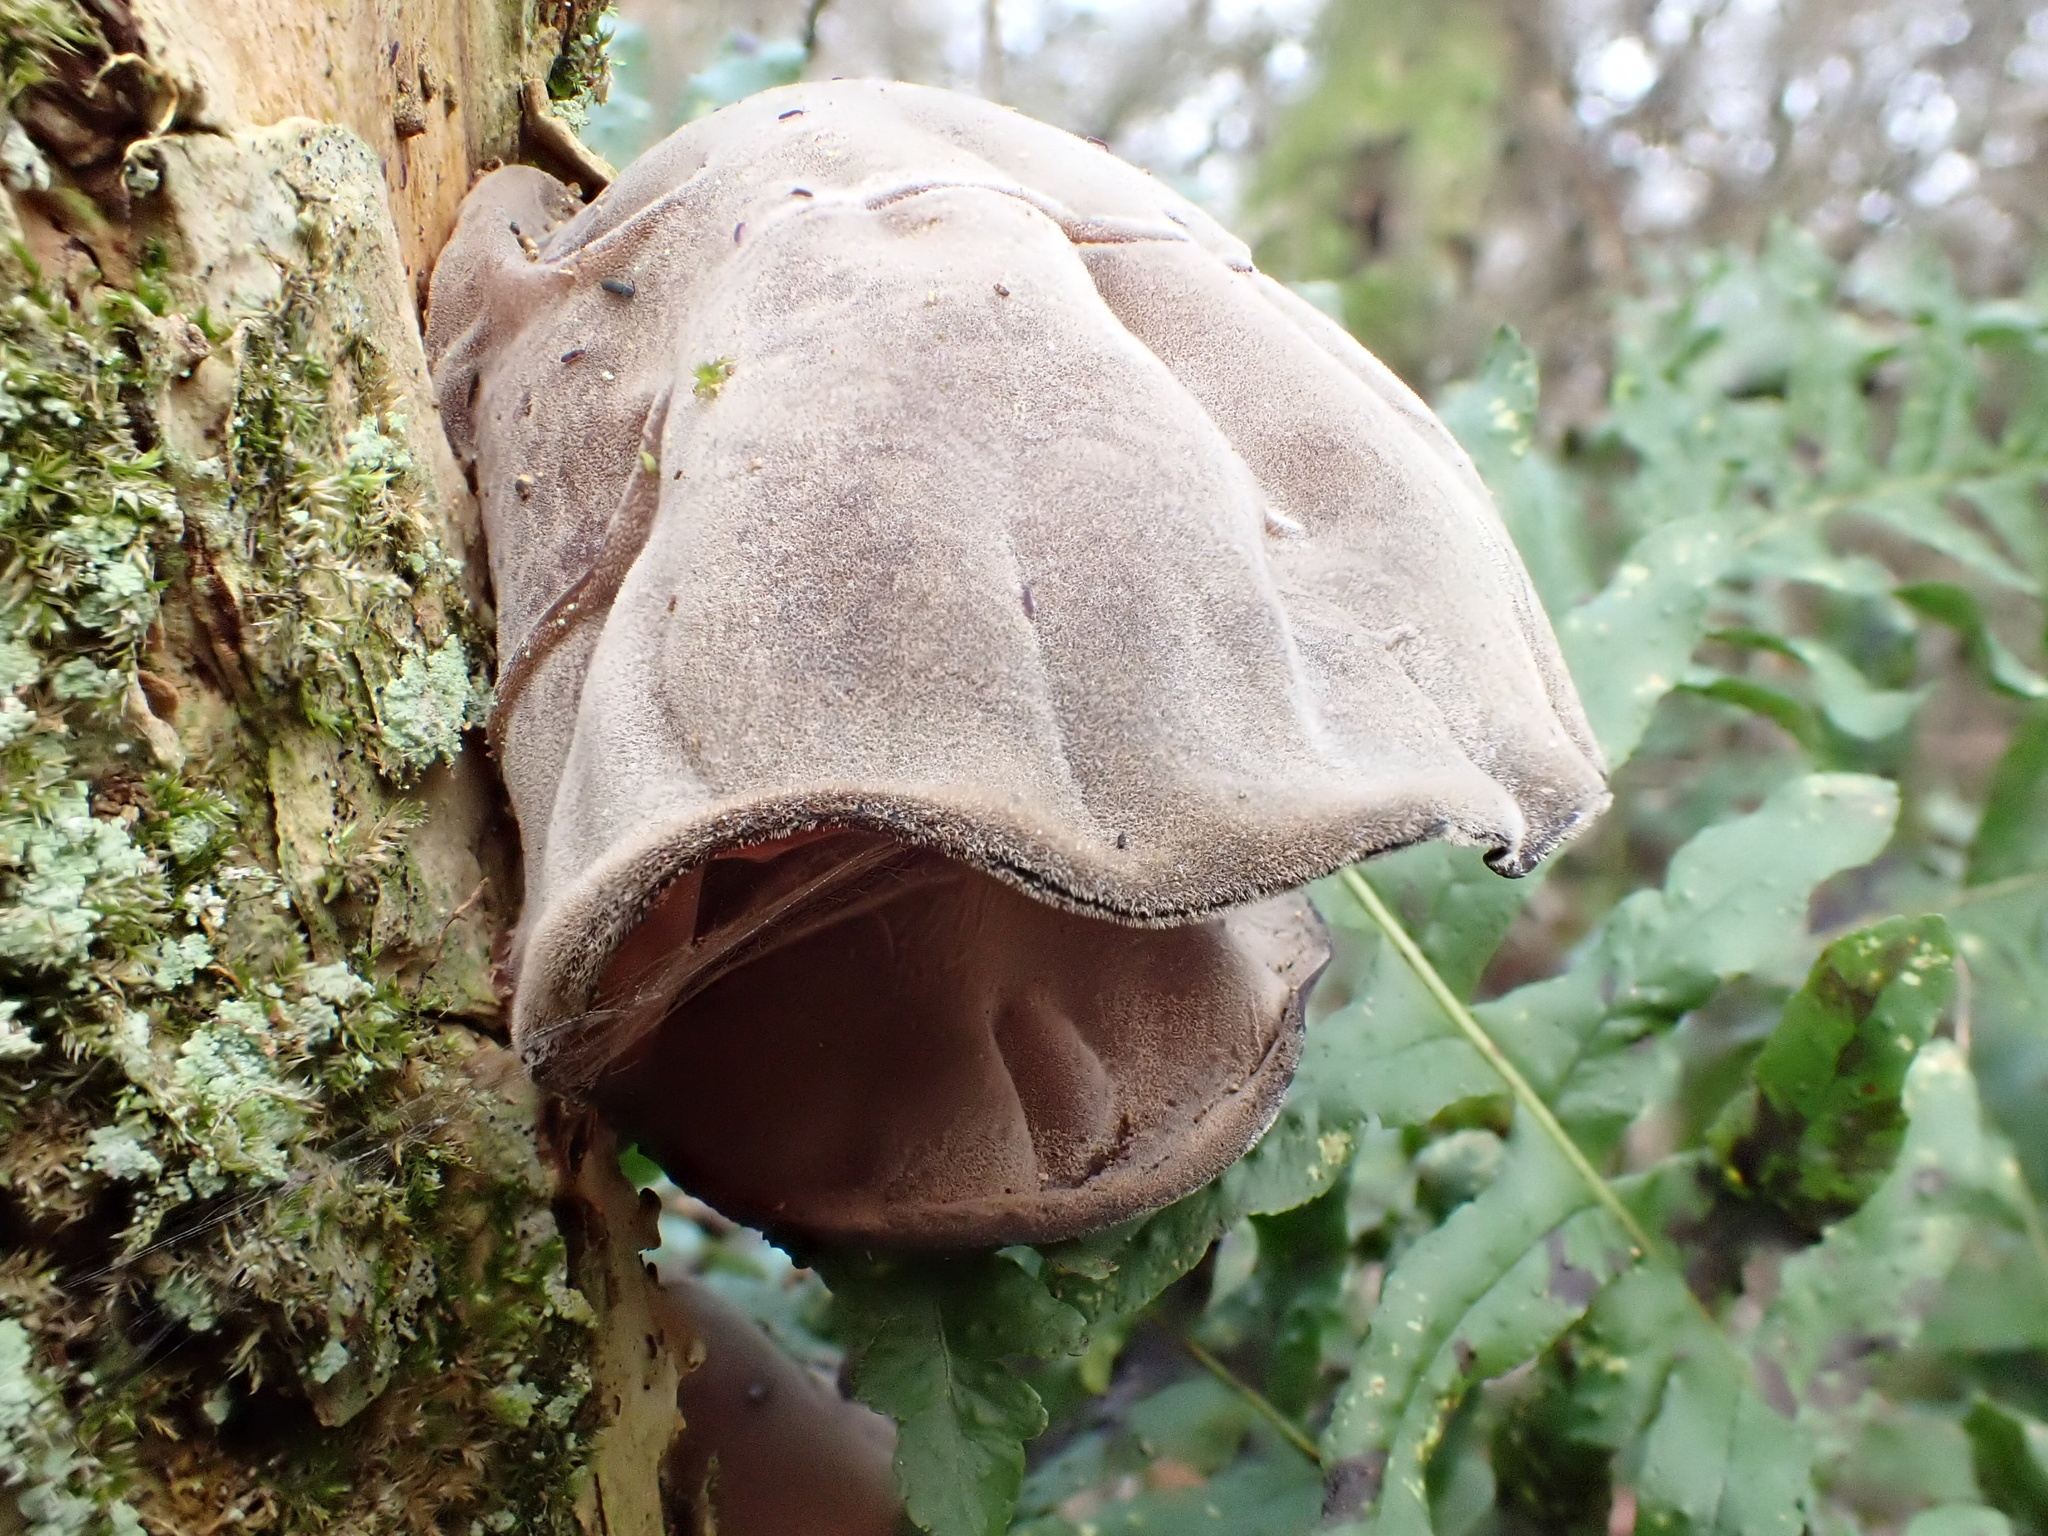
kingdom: Fungi
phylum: Basidiomycota
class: Agaricomycetes
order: Auriculariales
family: Auriculariaceae
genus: Auricularia
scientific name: Auricularia auricula-judae
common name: Jelly ear
